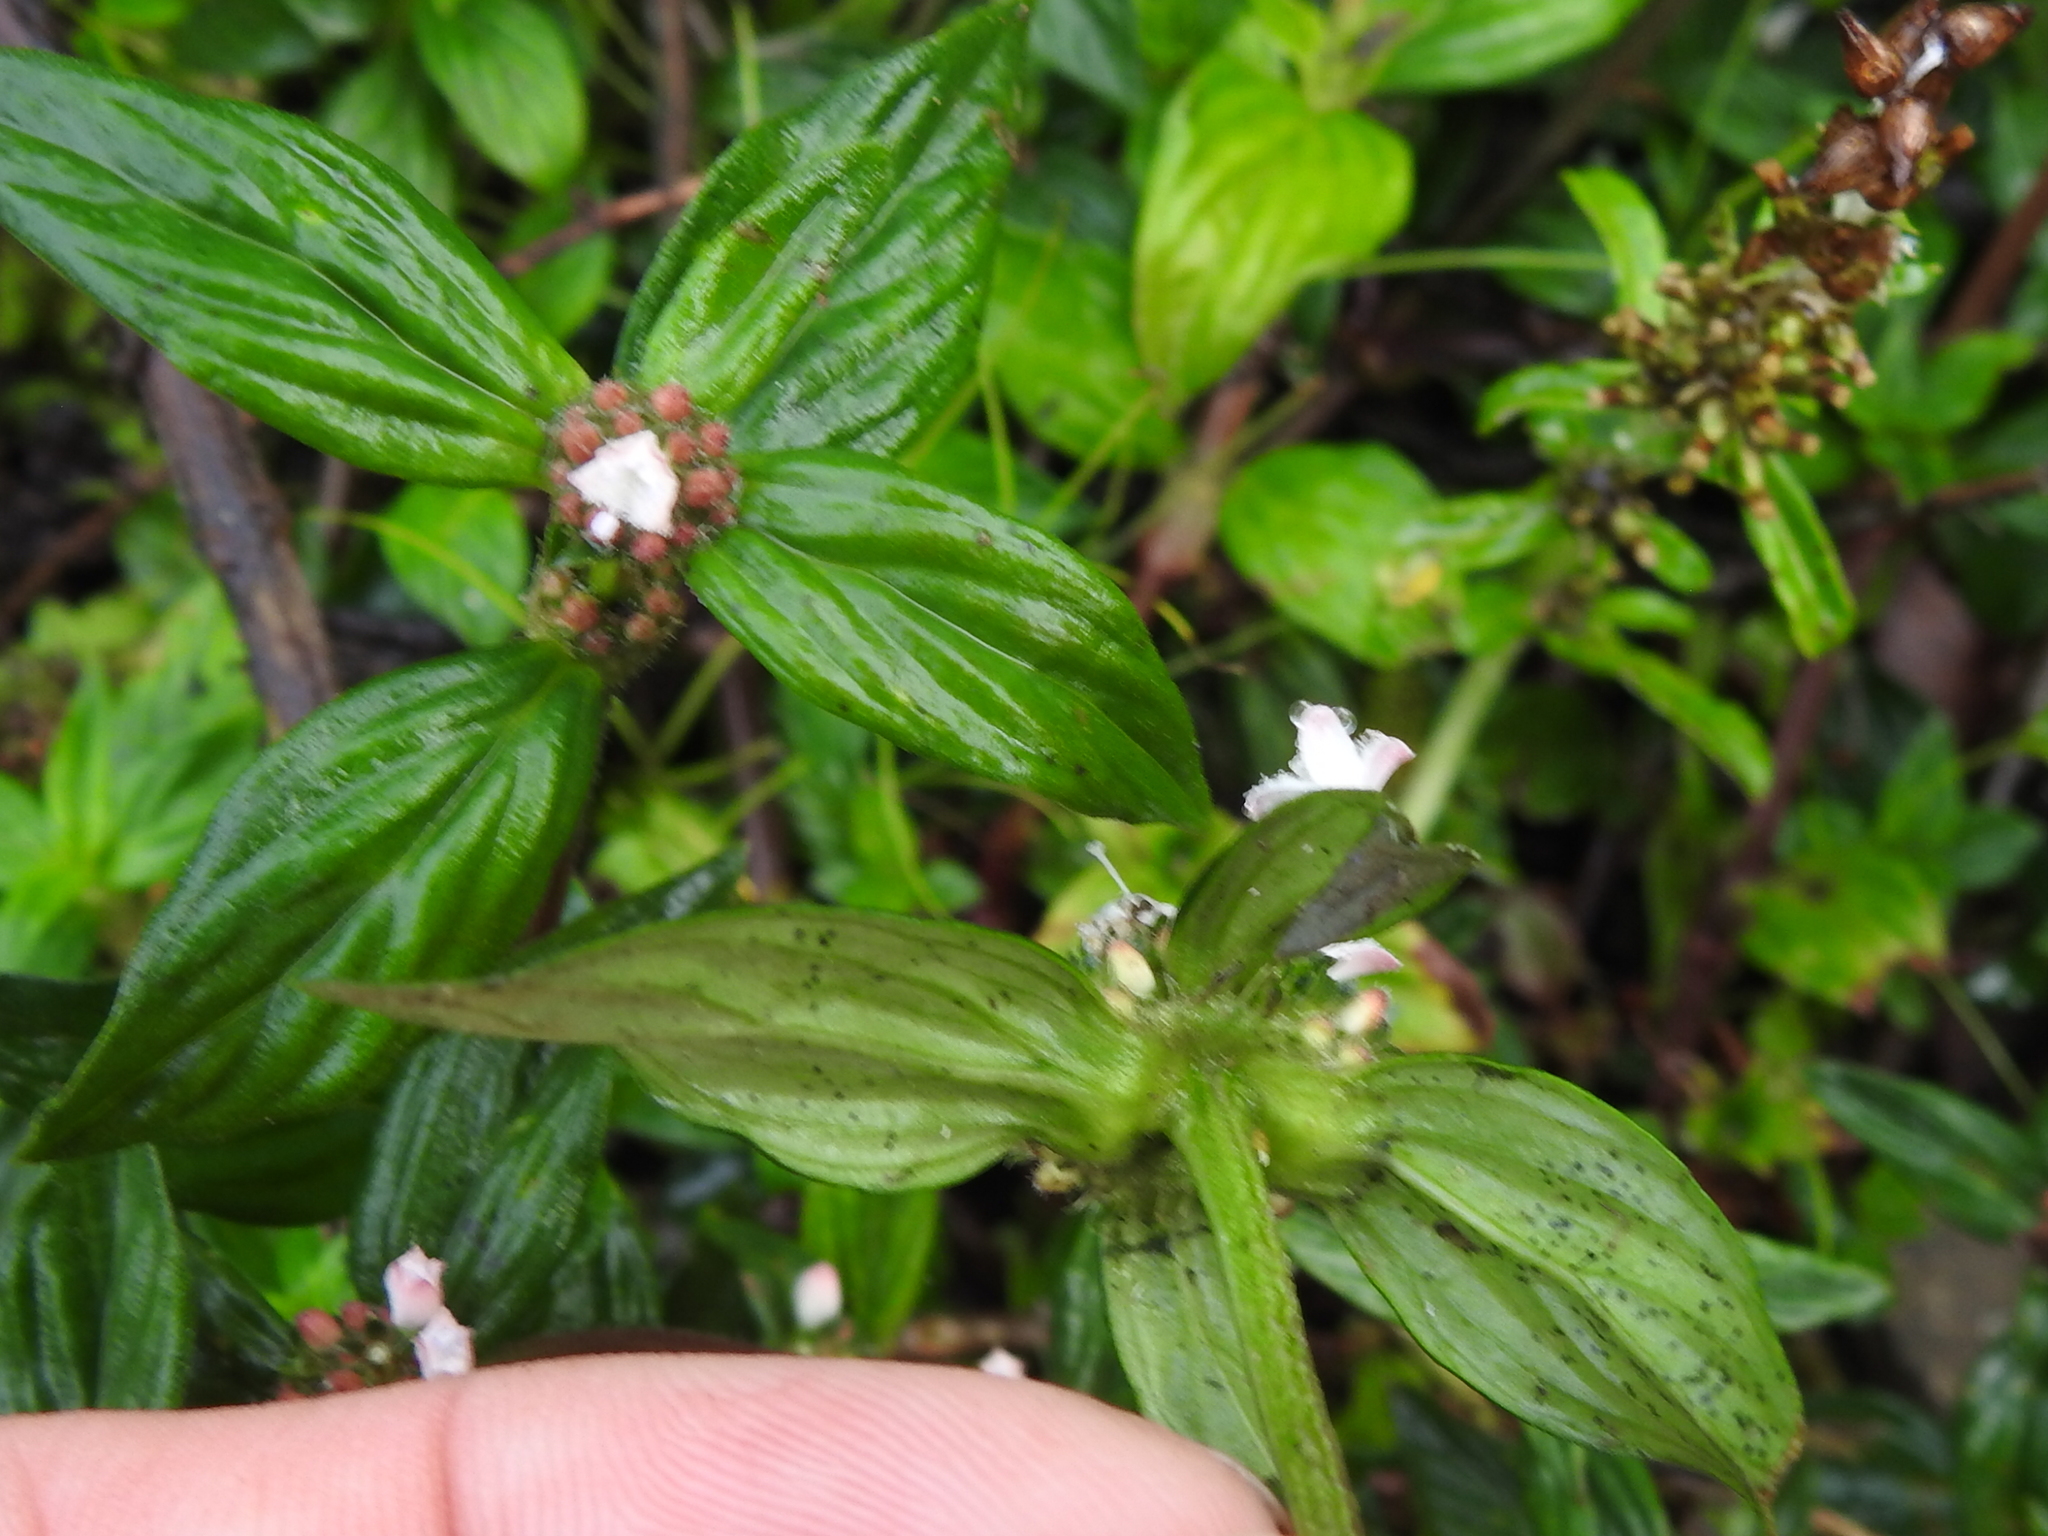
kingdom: Plantae
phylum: Tracheophyta
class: Magnoliopsida
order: Gentianales
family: Rubiaceae
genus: Spermacoce
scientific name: Spermacoce remota
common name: Woodland false buttonweed
